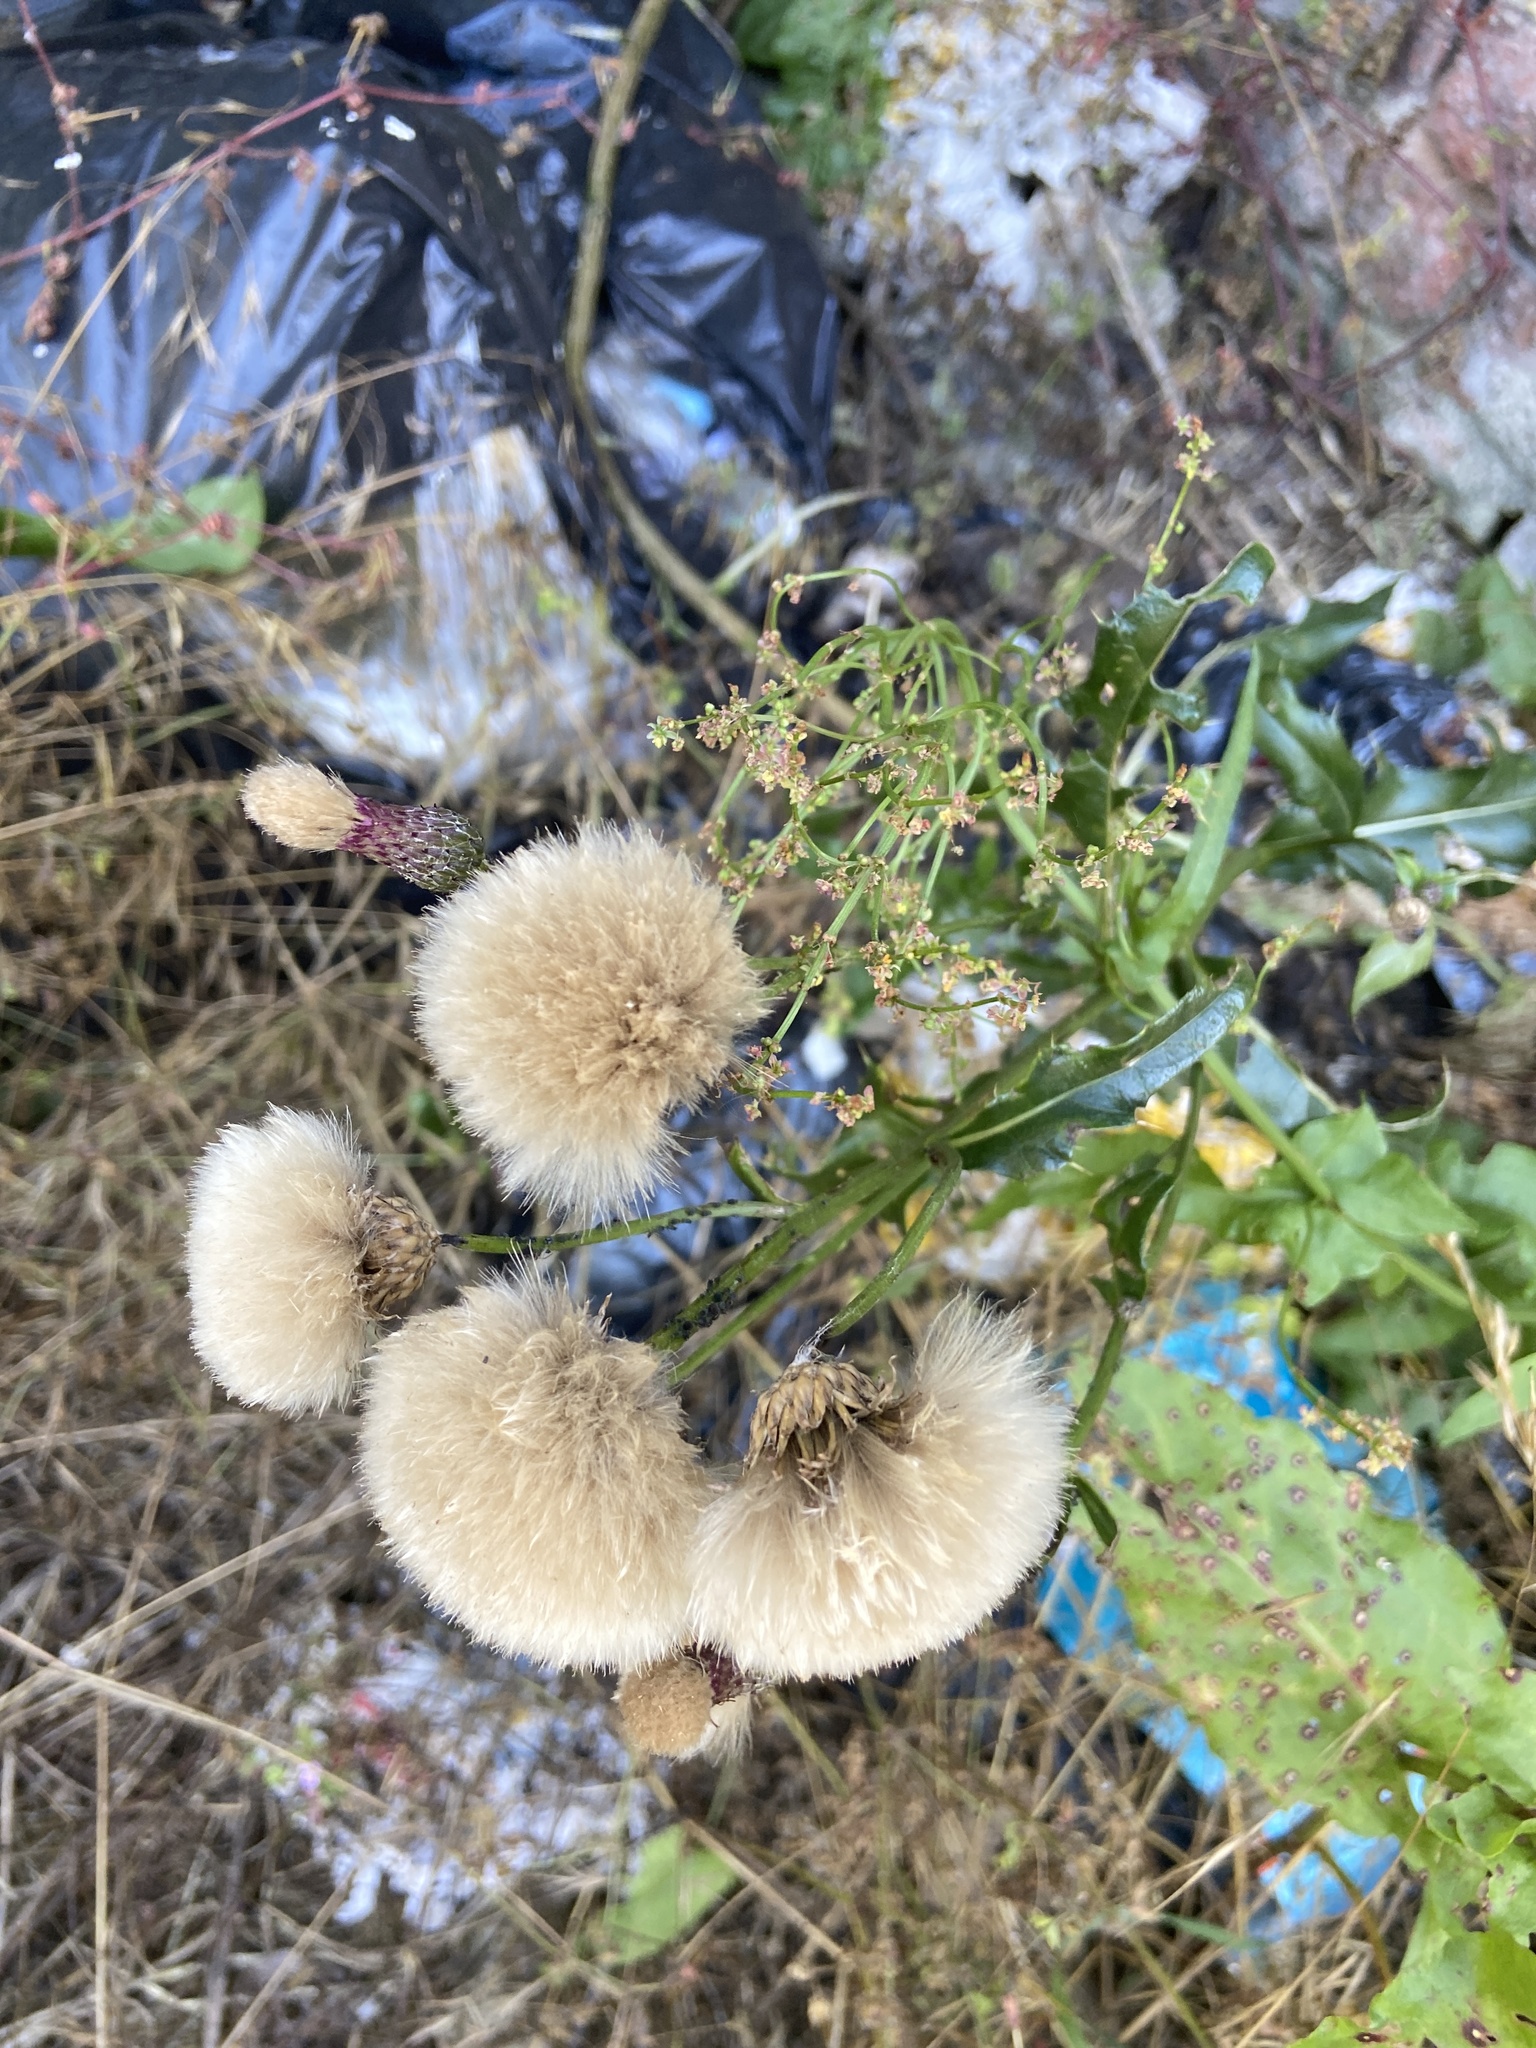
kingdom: Plantae
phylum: Tracheophyta
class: Magnoliopsida
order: Asterales
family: Asteraceae
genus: Cirsium
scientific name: Cirsium arvense
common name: Creeping thistle
